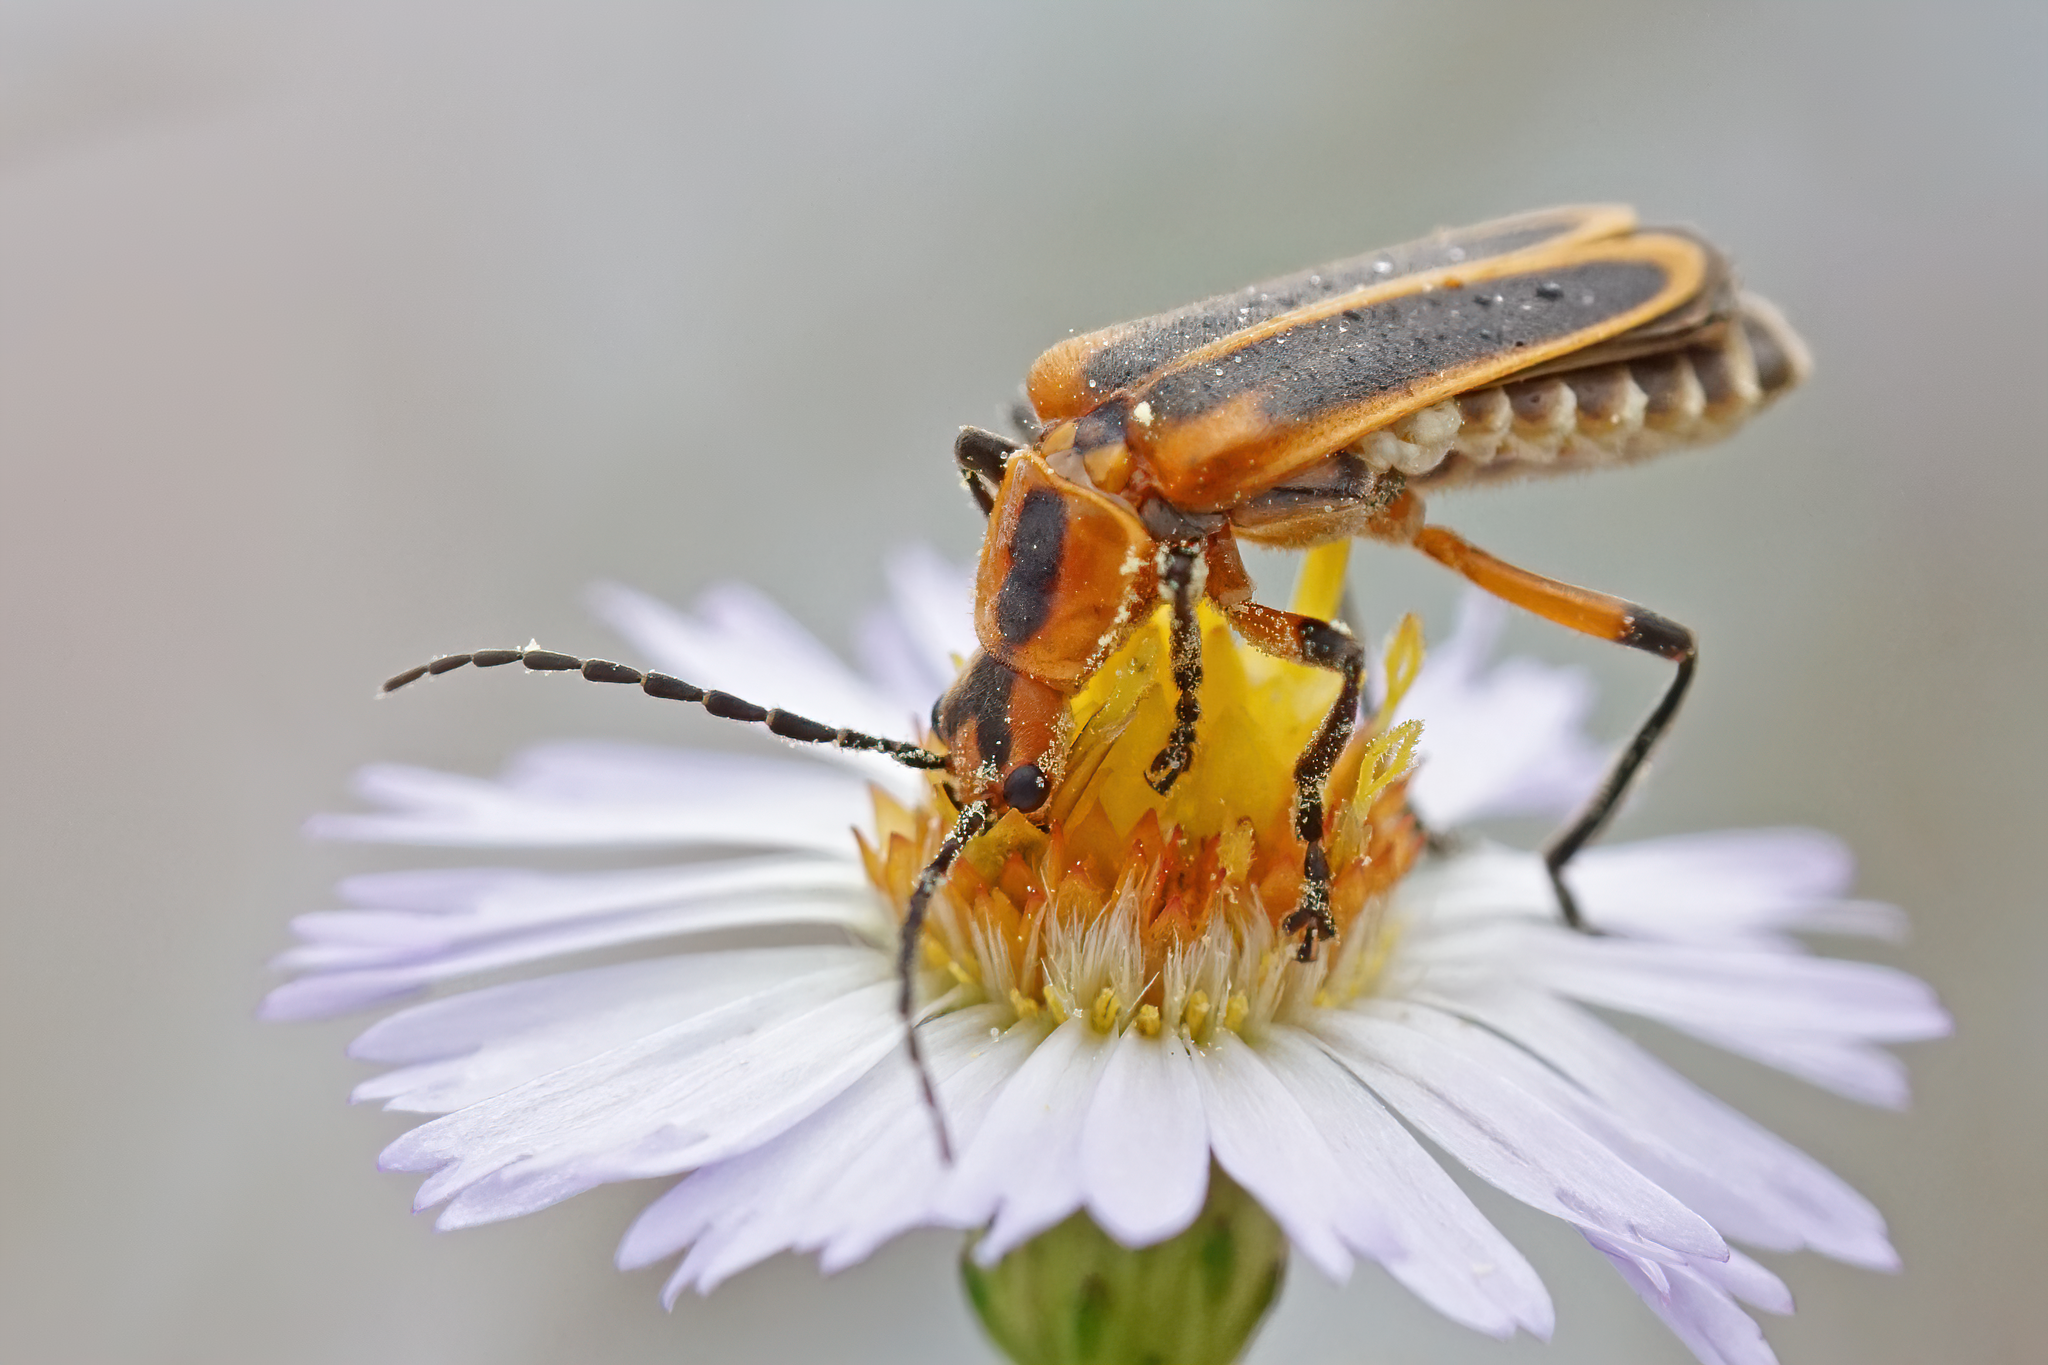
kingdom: Animalia
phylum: Arthropoda
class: Insecta
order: Coleoptera
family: Cantharidae
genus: Chauliognathus
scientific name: Chauliognathus marginatus
